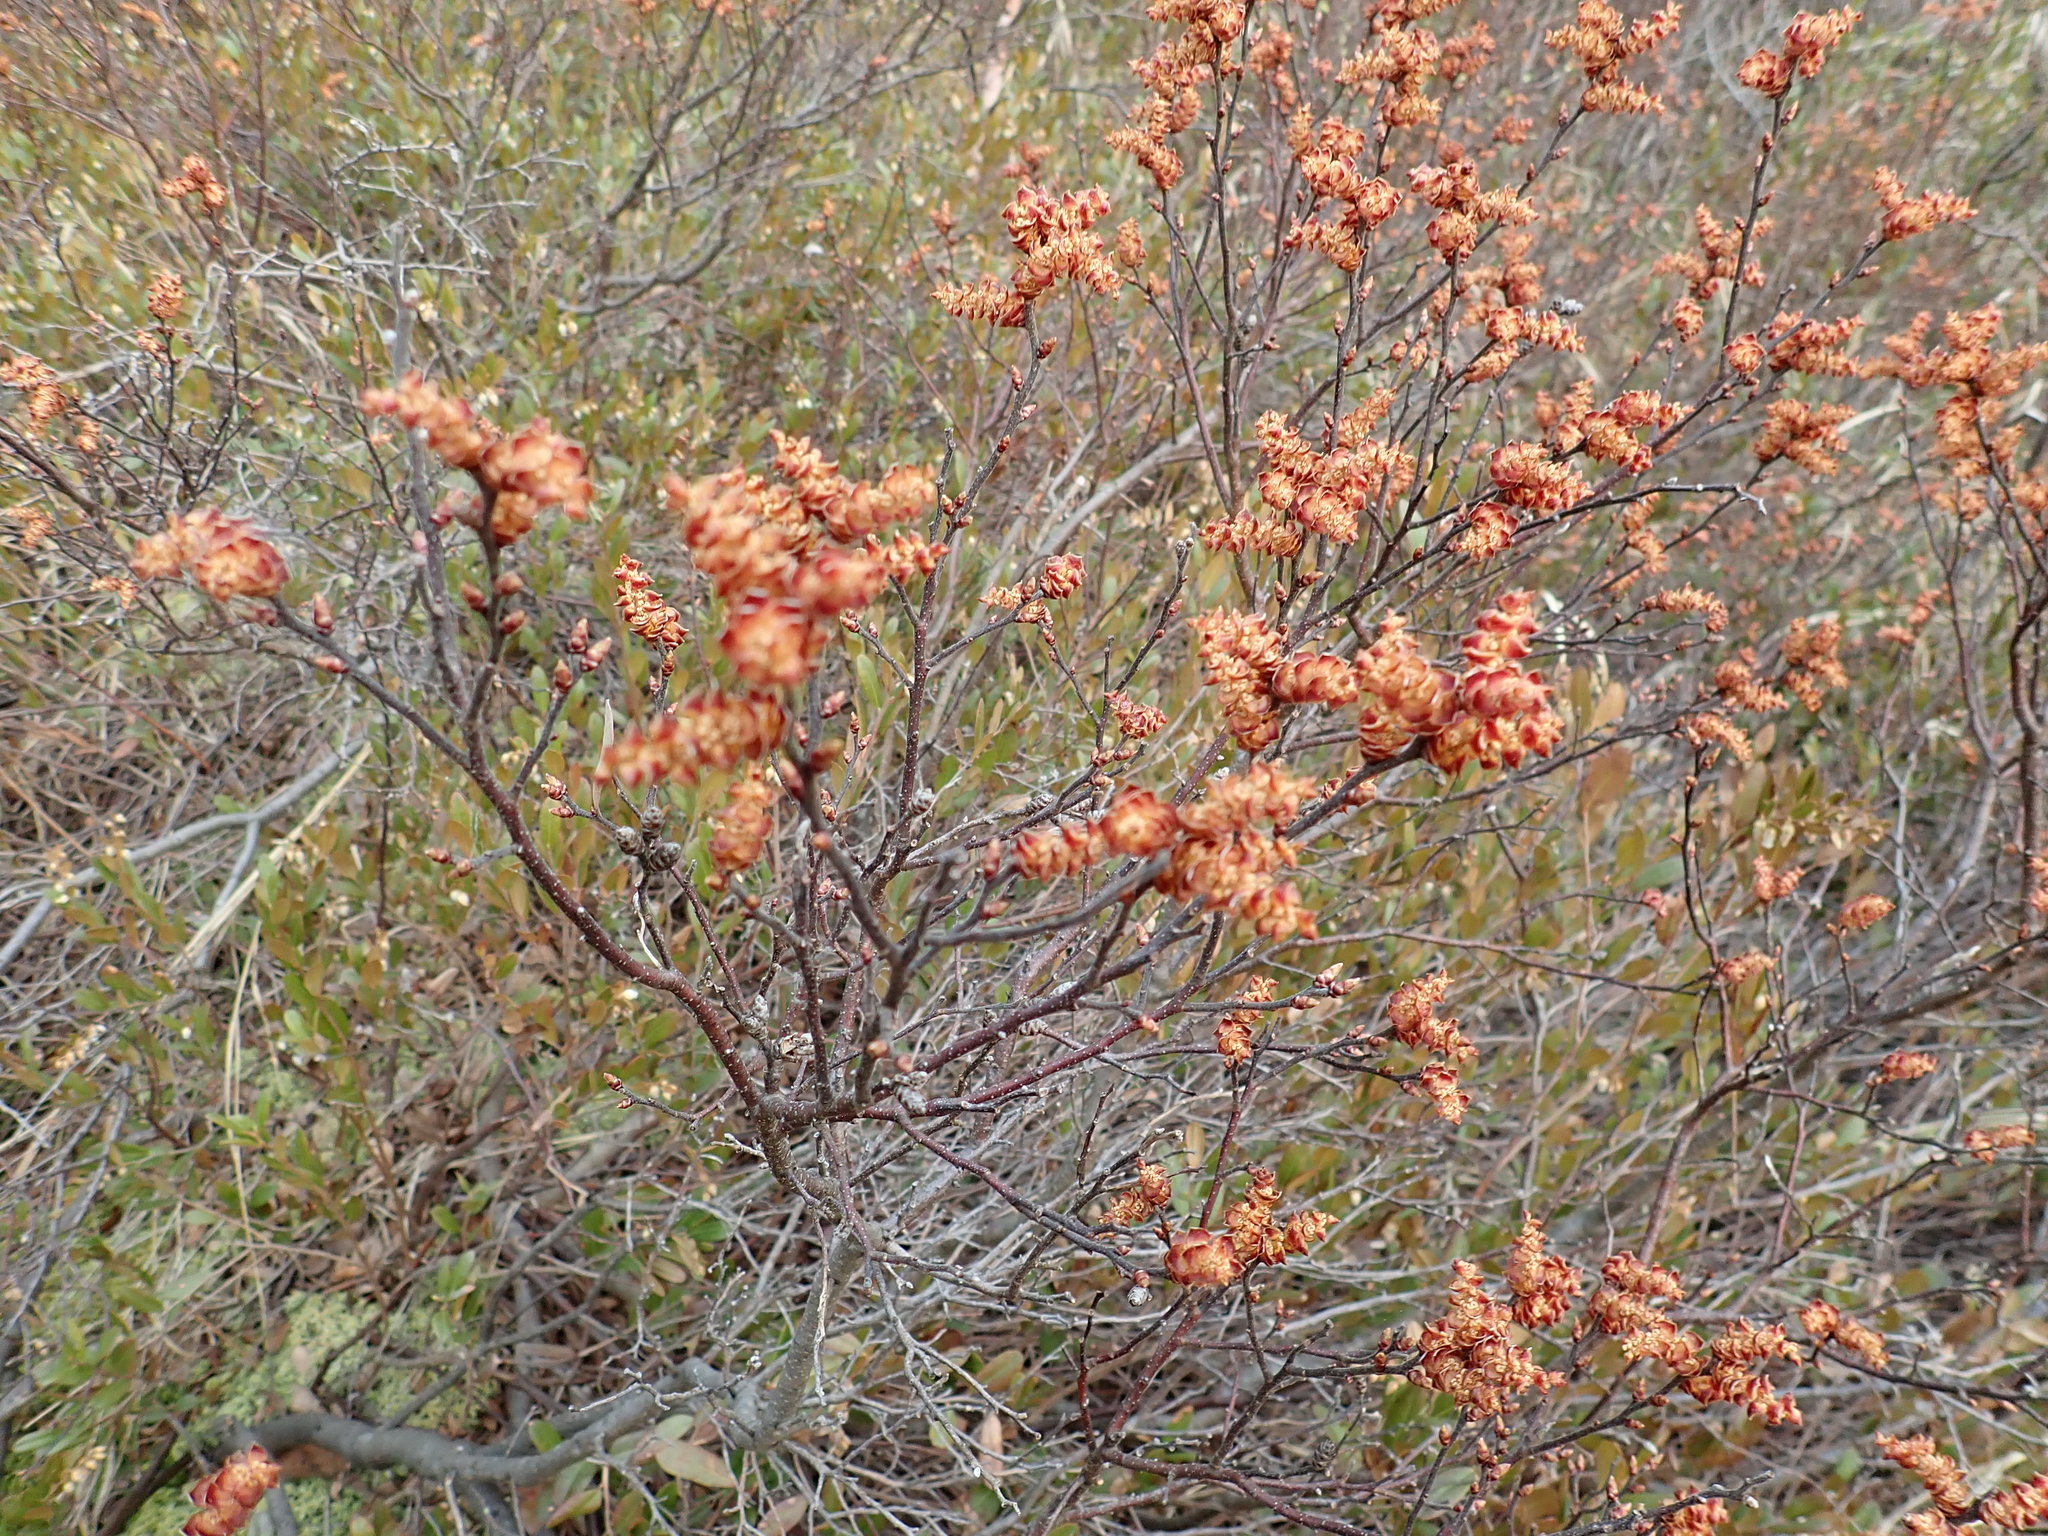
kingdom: Plantae
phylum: Tracheophyta
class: Magnoliopsida
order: Fagales
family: Myricaceae
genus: Myrica
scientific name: Myrica gale
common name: Sweet gale
